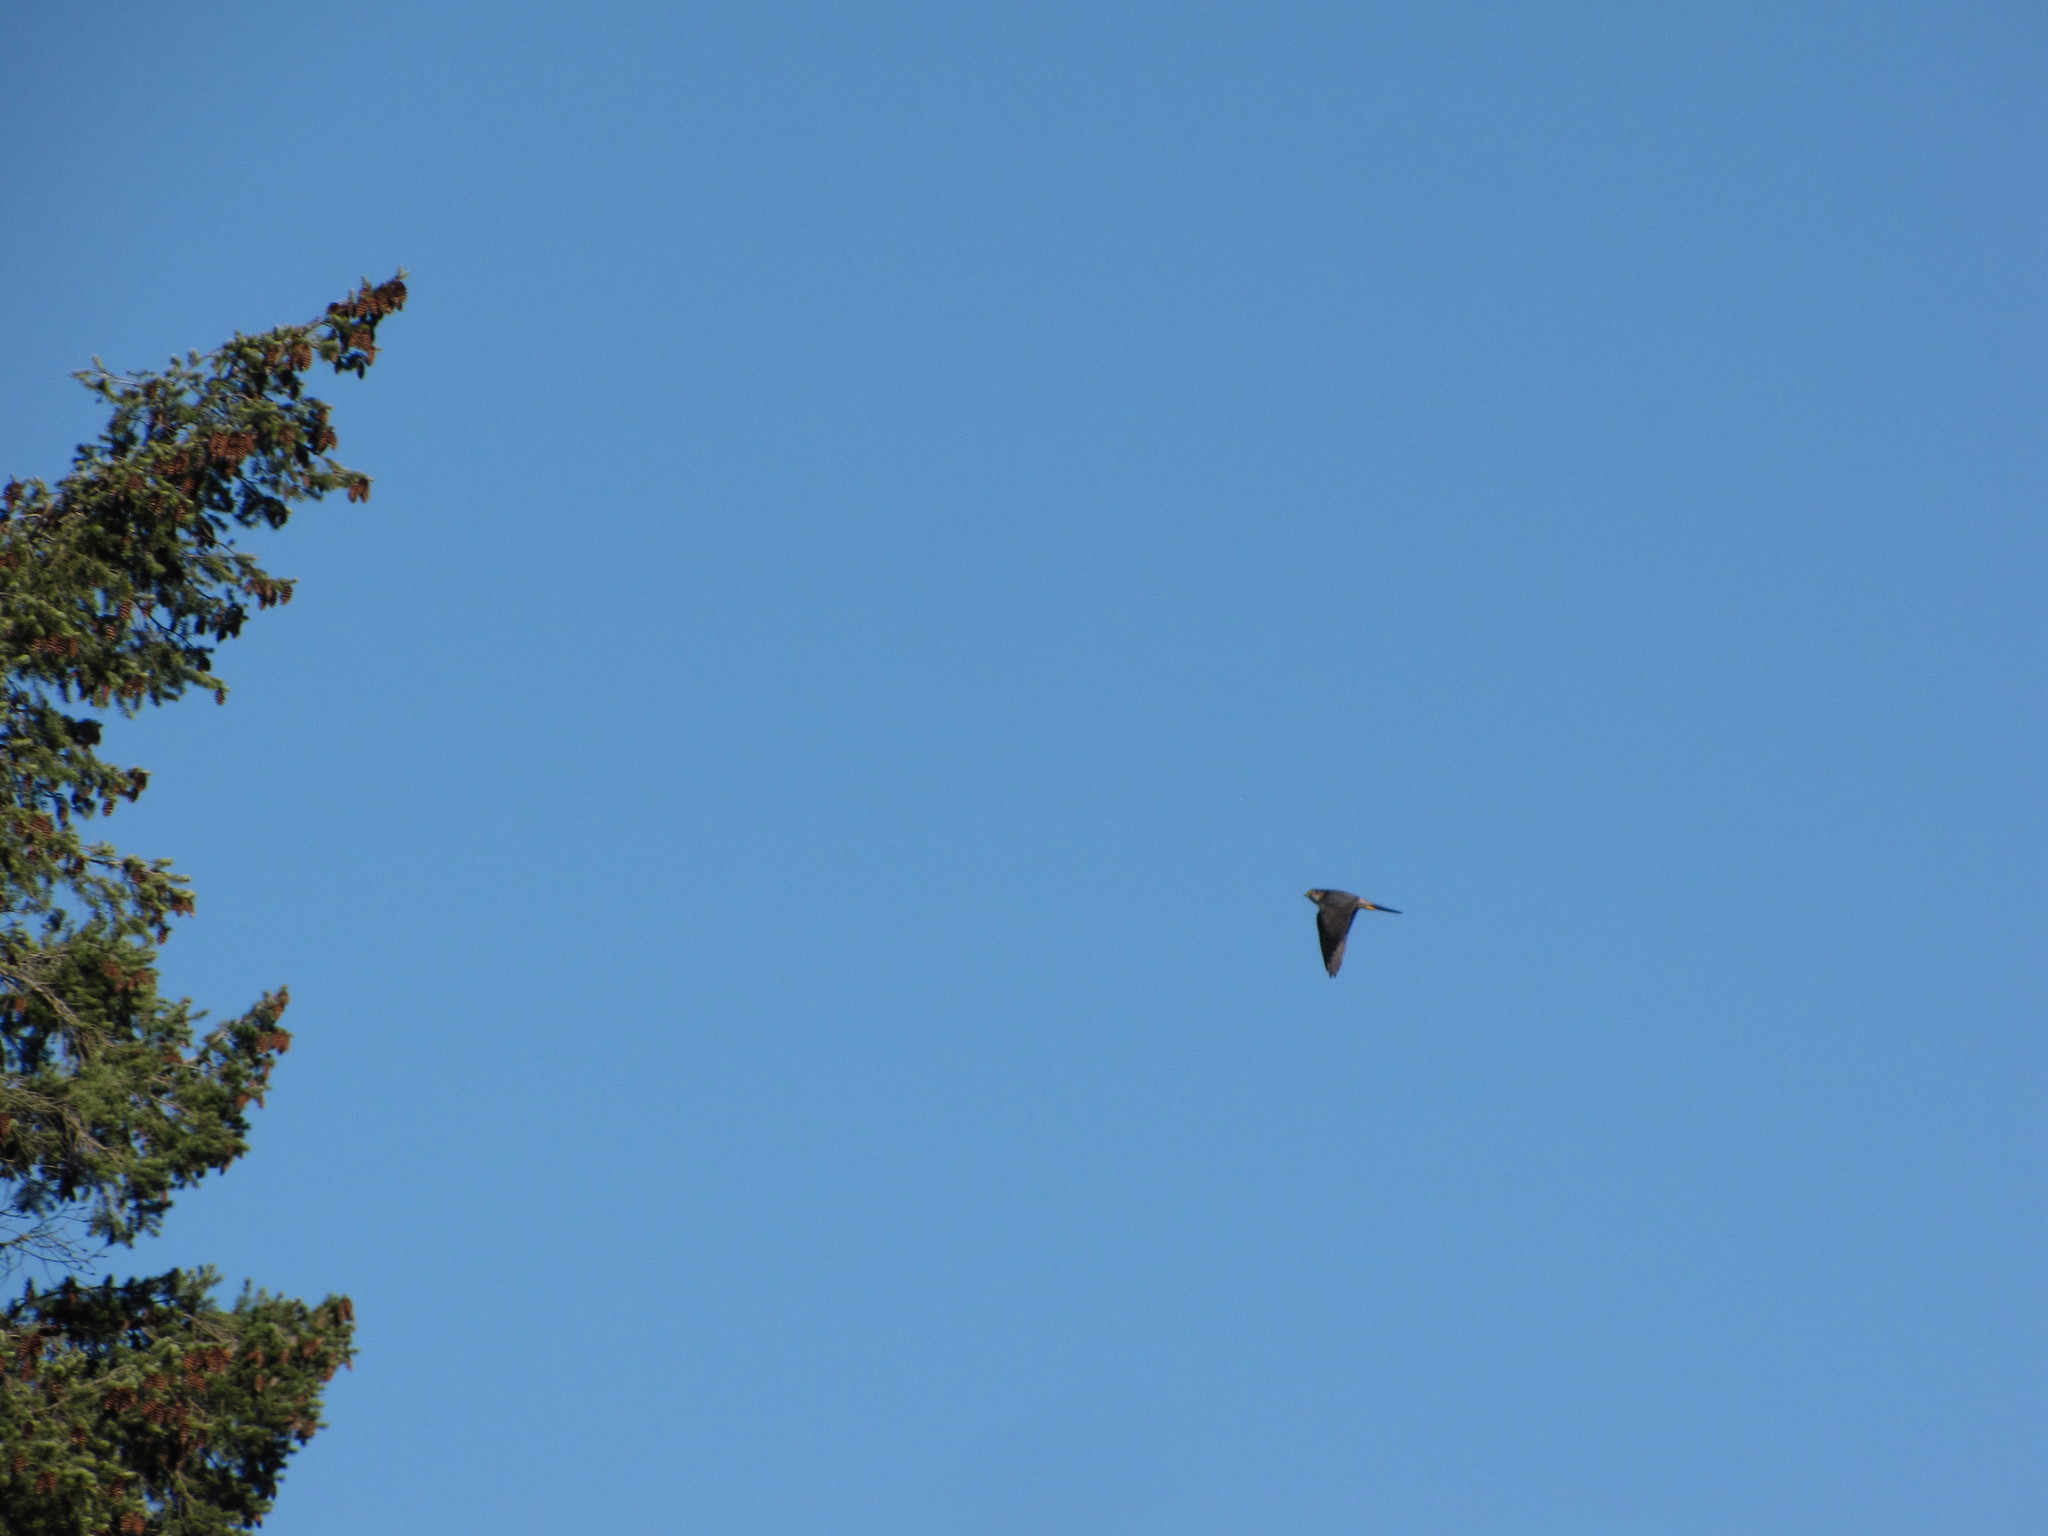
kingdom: Animalia
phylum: Chordata
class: Aves
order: Falconiformes
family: Falconidae
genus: Falco
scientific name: Falco columbarius
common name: Merlin
